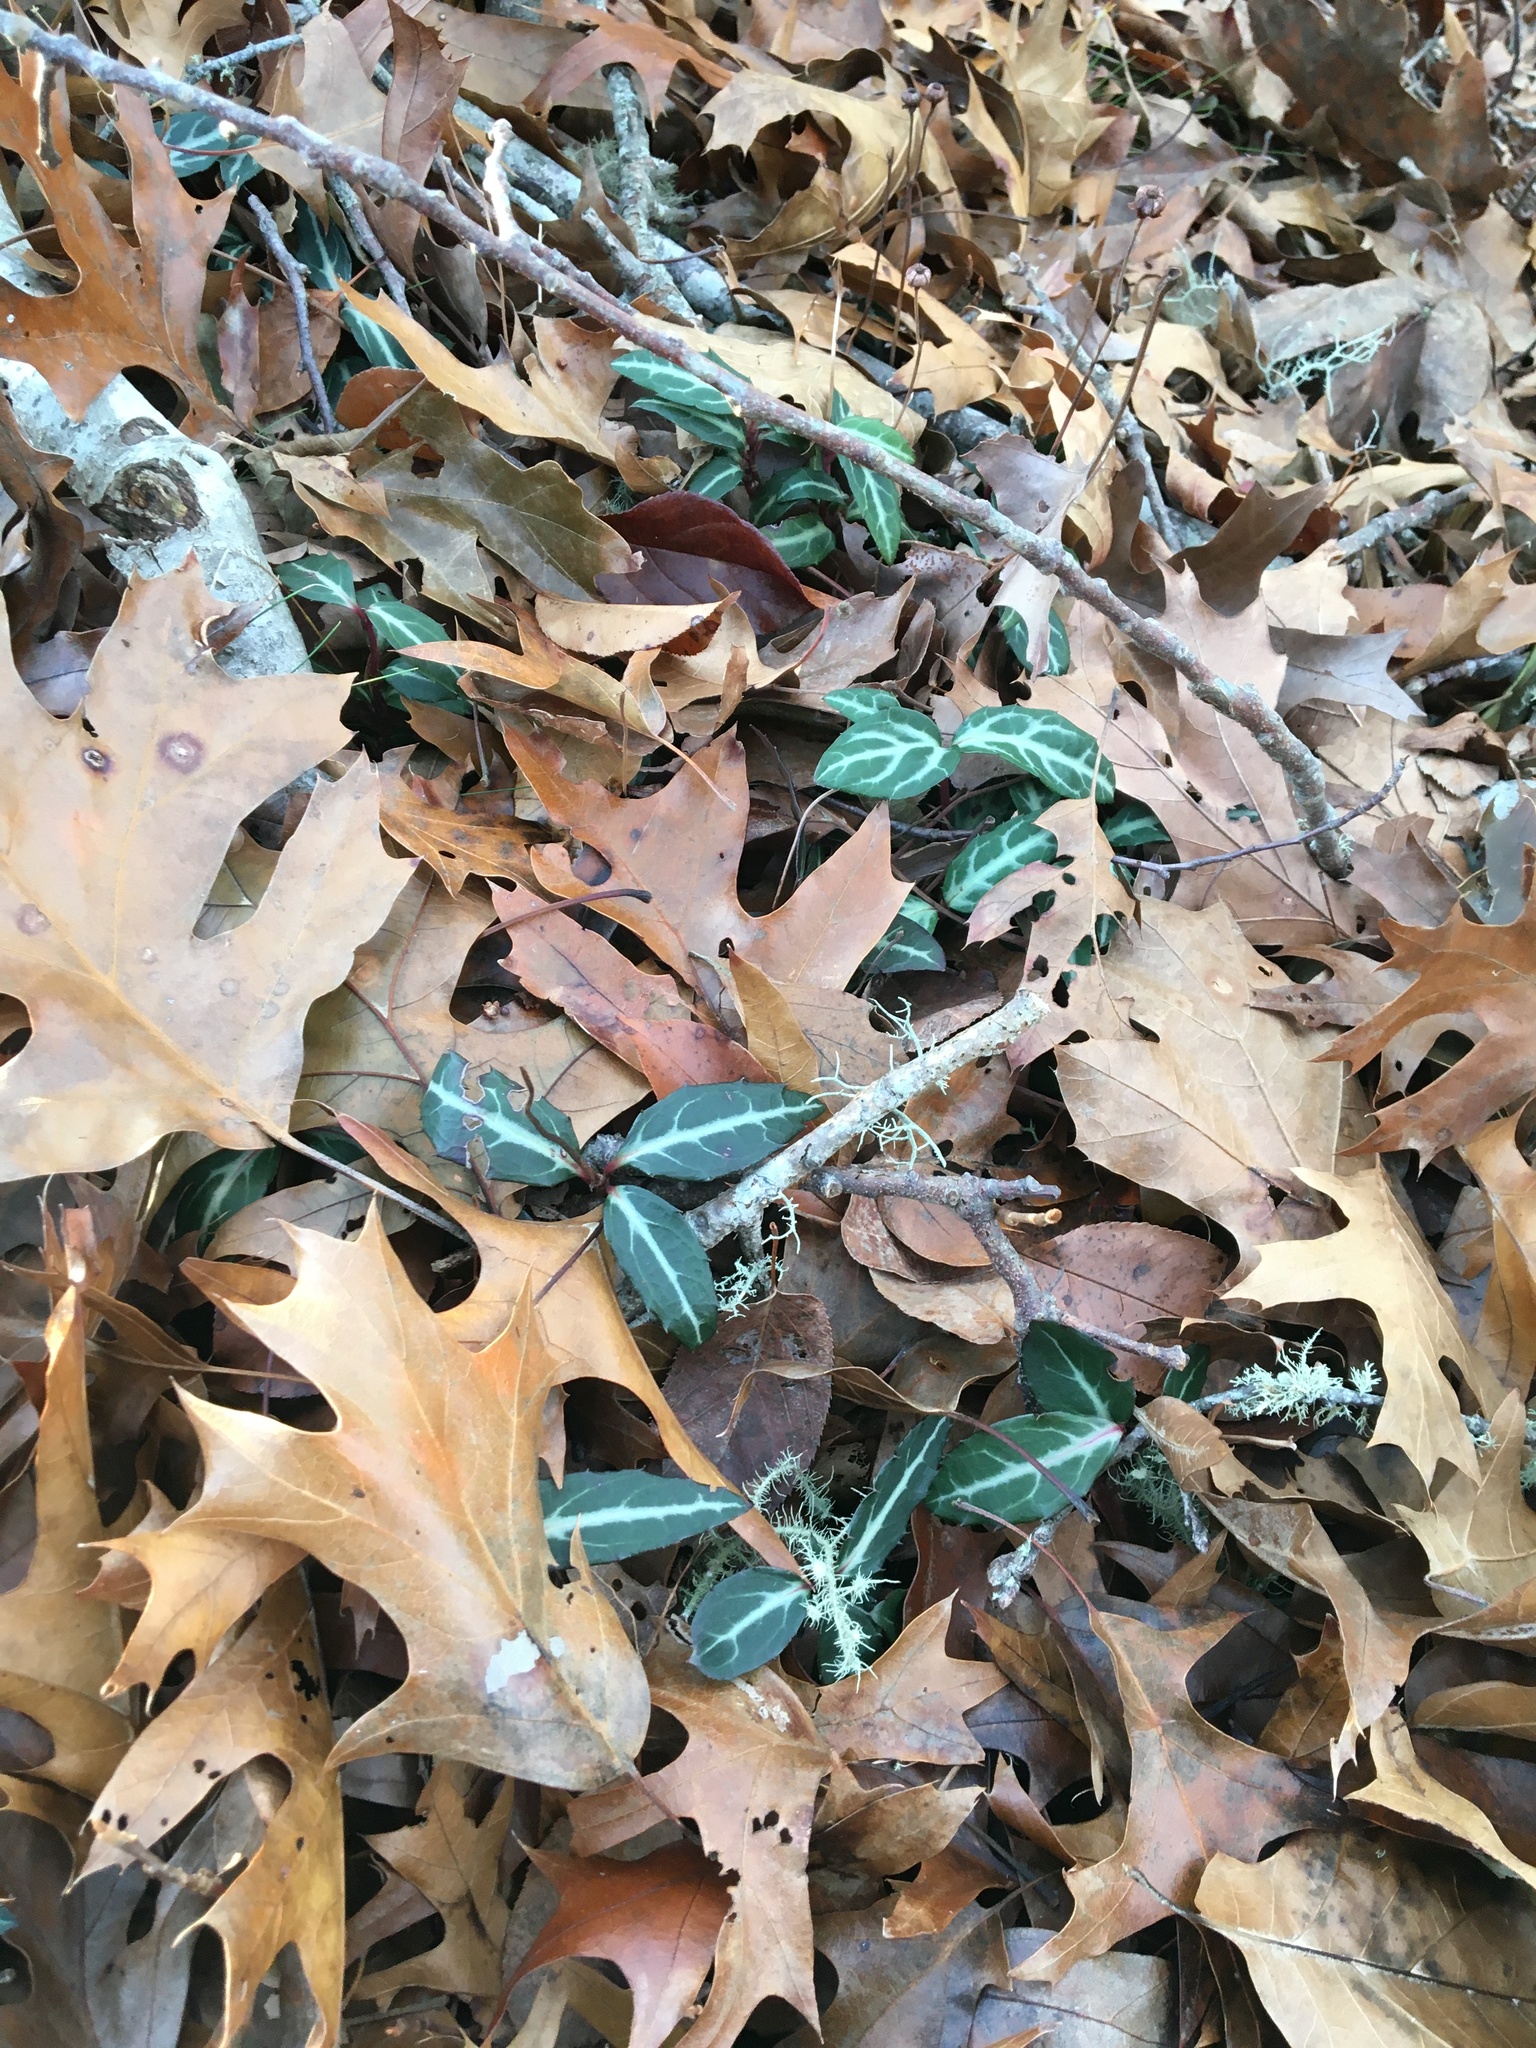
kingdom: Plantae
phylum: Tracheophyta
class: Magnoliopsida
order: Ericales
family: Ericaceae
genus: Chimaphila
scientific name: Chimaphila maculata
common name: Spotted pipsissewa
